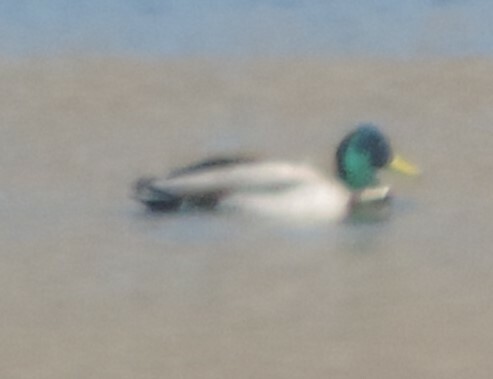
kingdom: Animalia
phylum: Chordata
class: Aves
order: Anseriformes
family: Anatidae
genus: Anas
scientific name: Anas platyrhynchos
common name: Mallard
